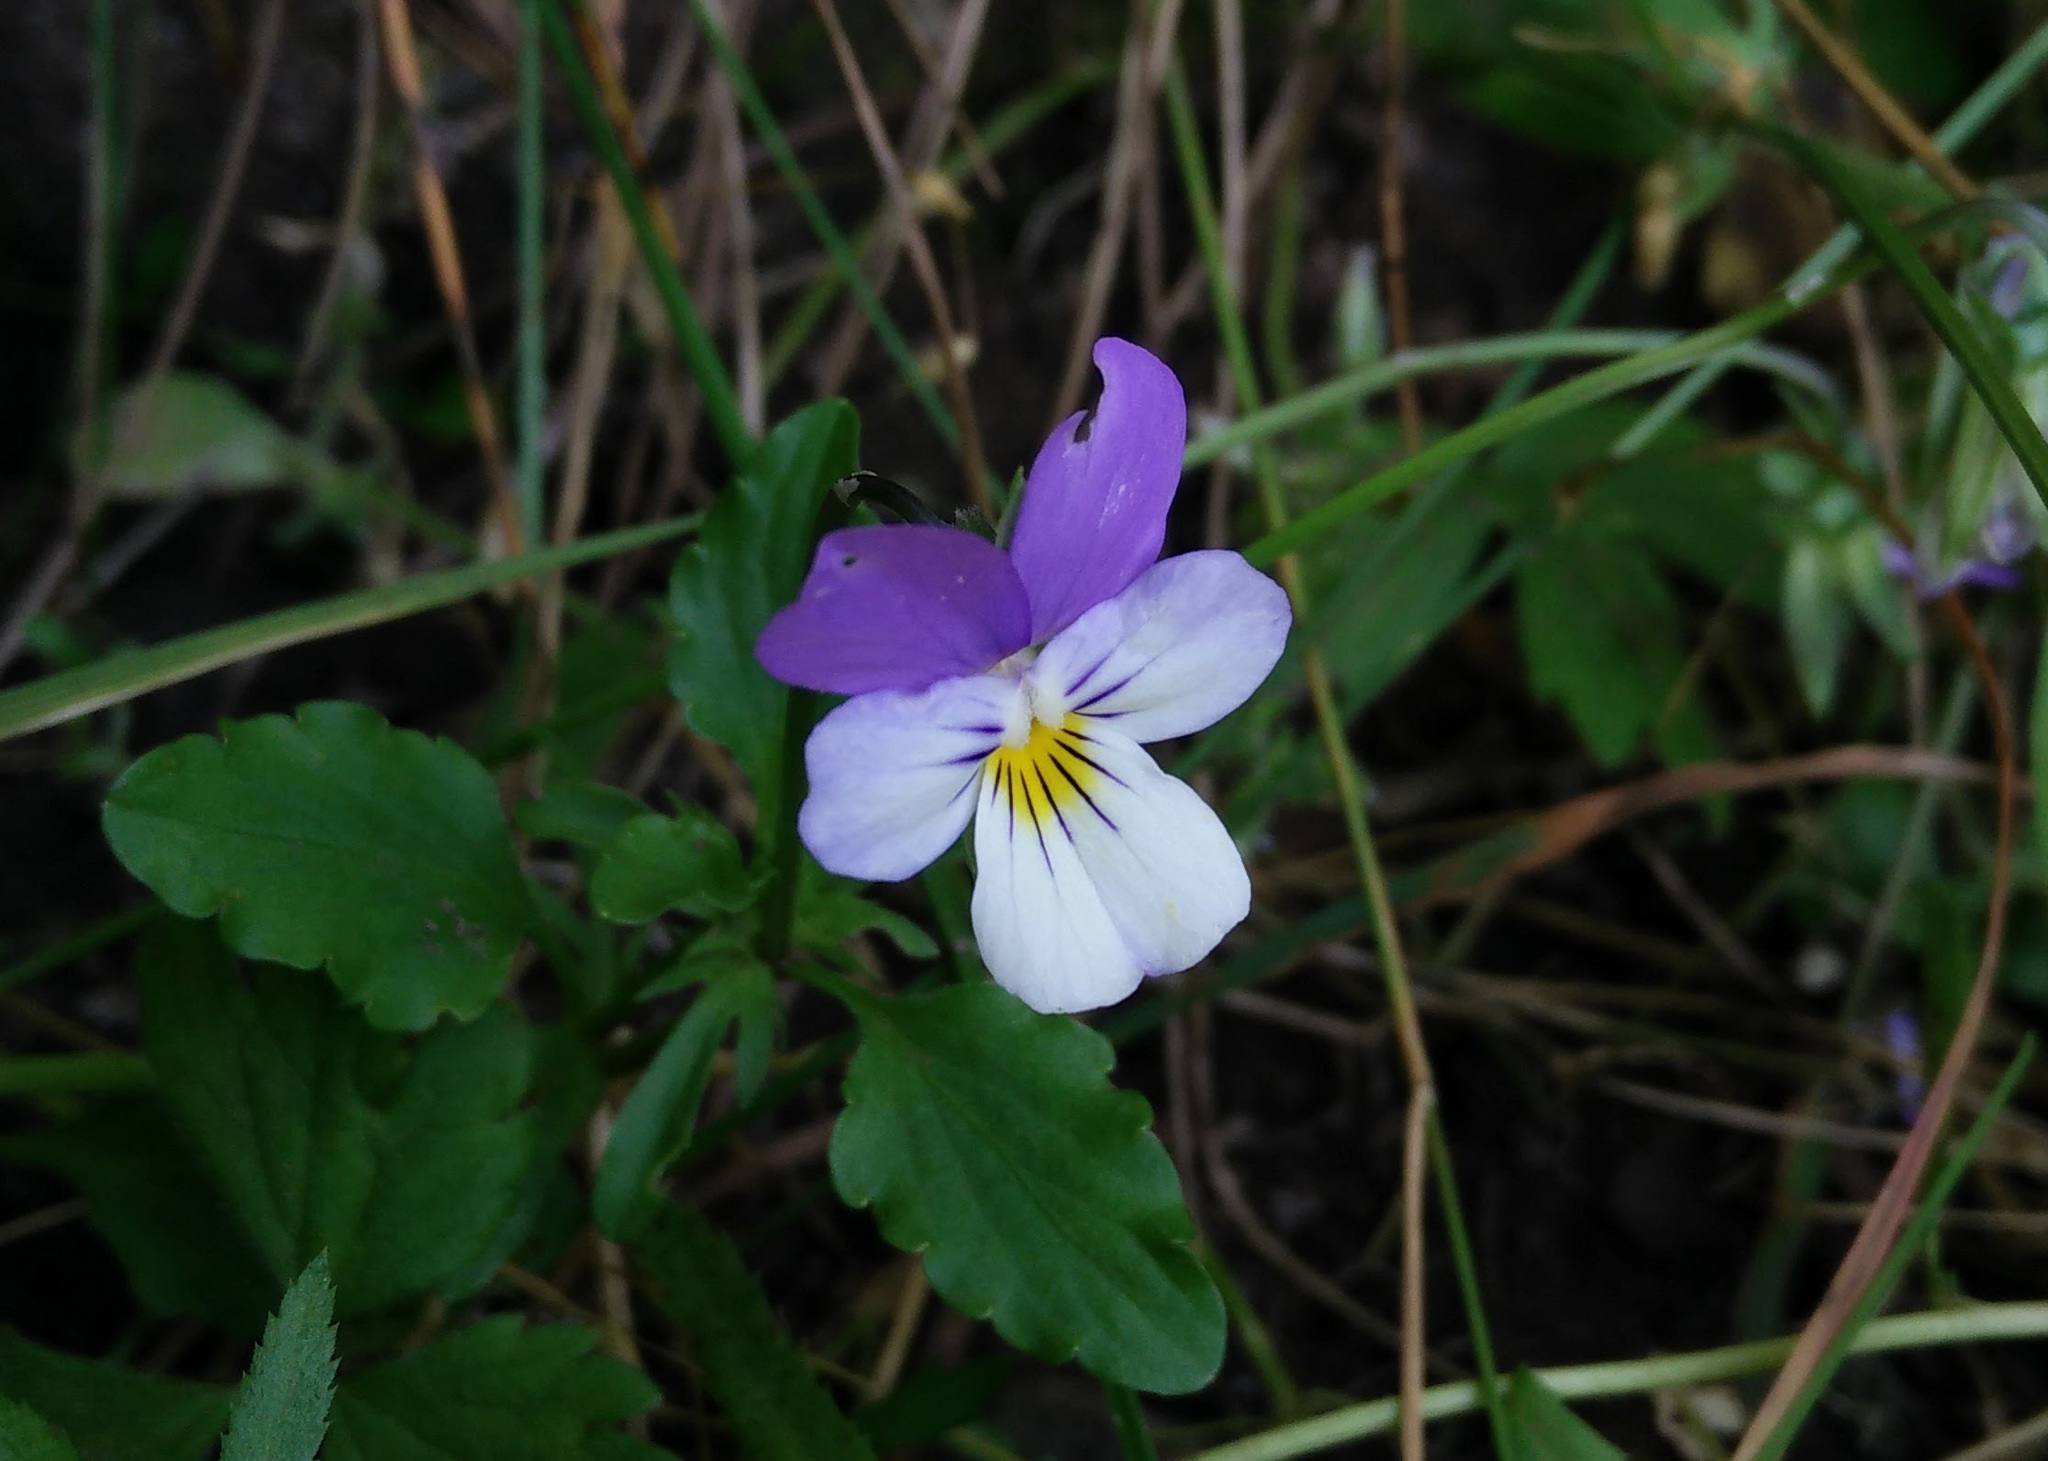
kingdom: Plantae
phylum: Tracheophyta
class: Magnoliopsida
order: Malpighiales
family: Violaceae
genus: Viola
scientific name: Viola tricolor
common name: Pansy
